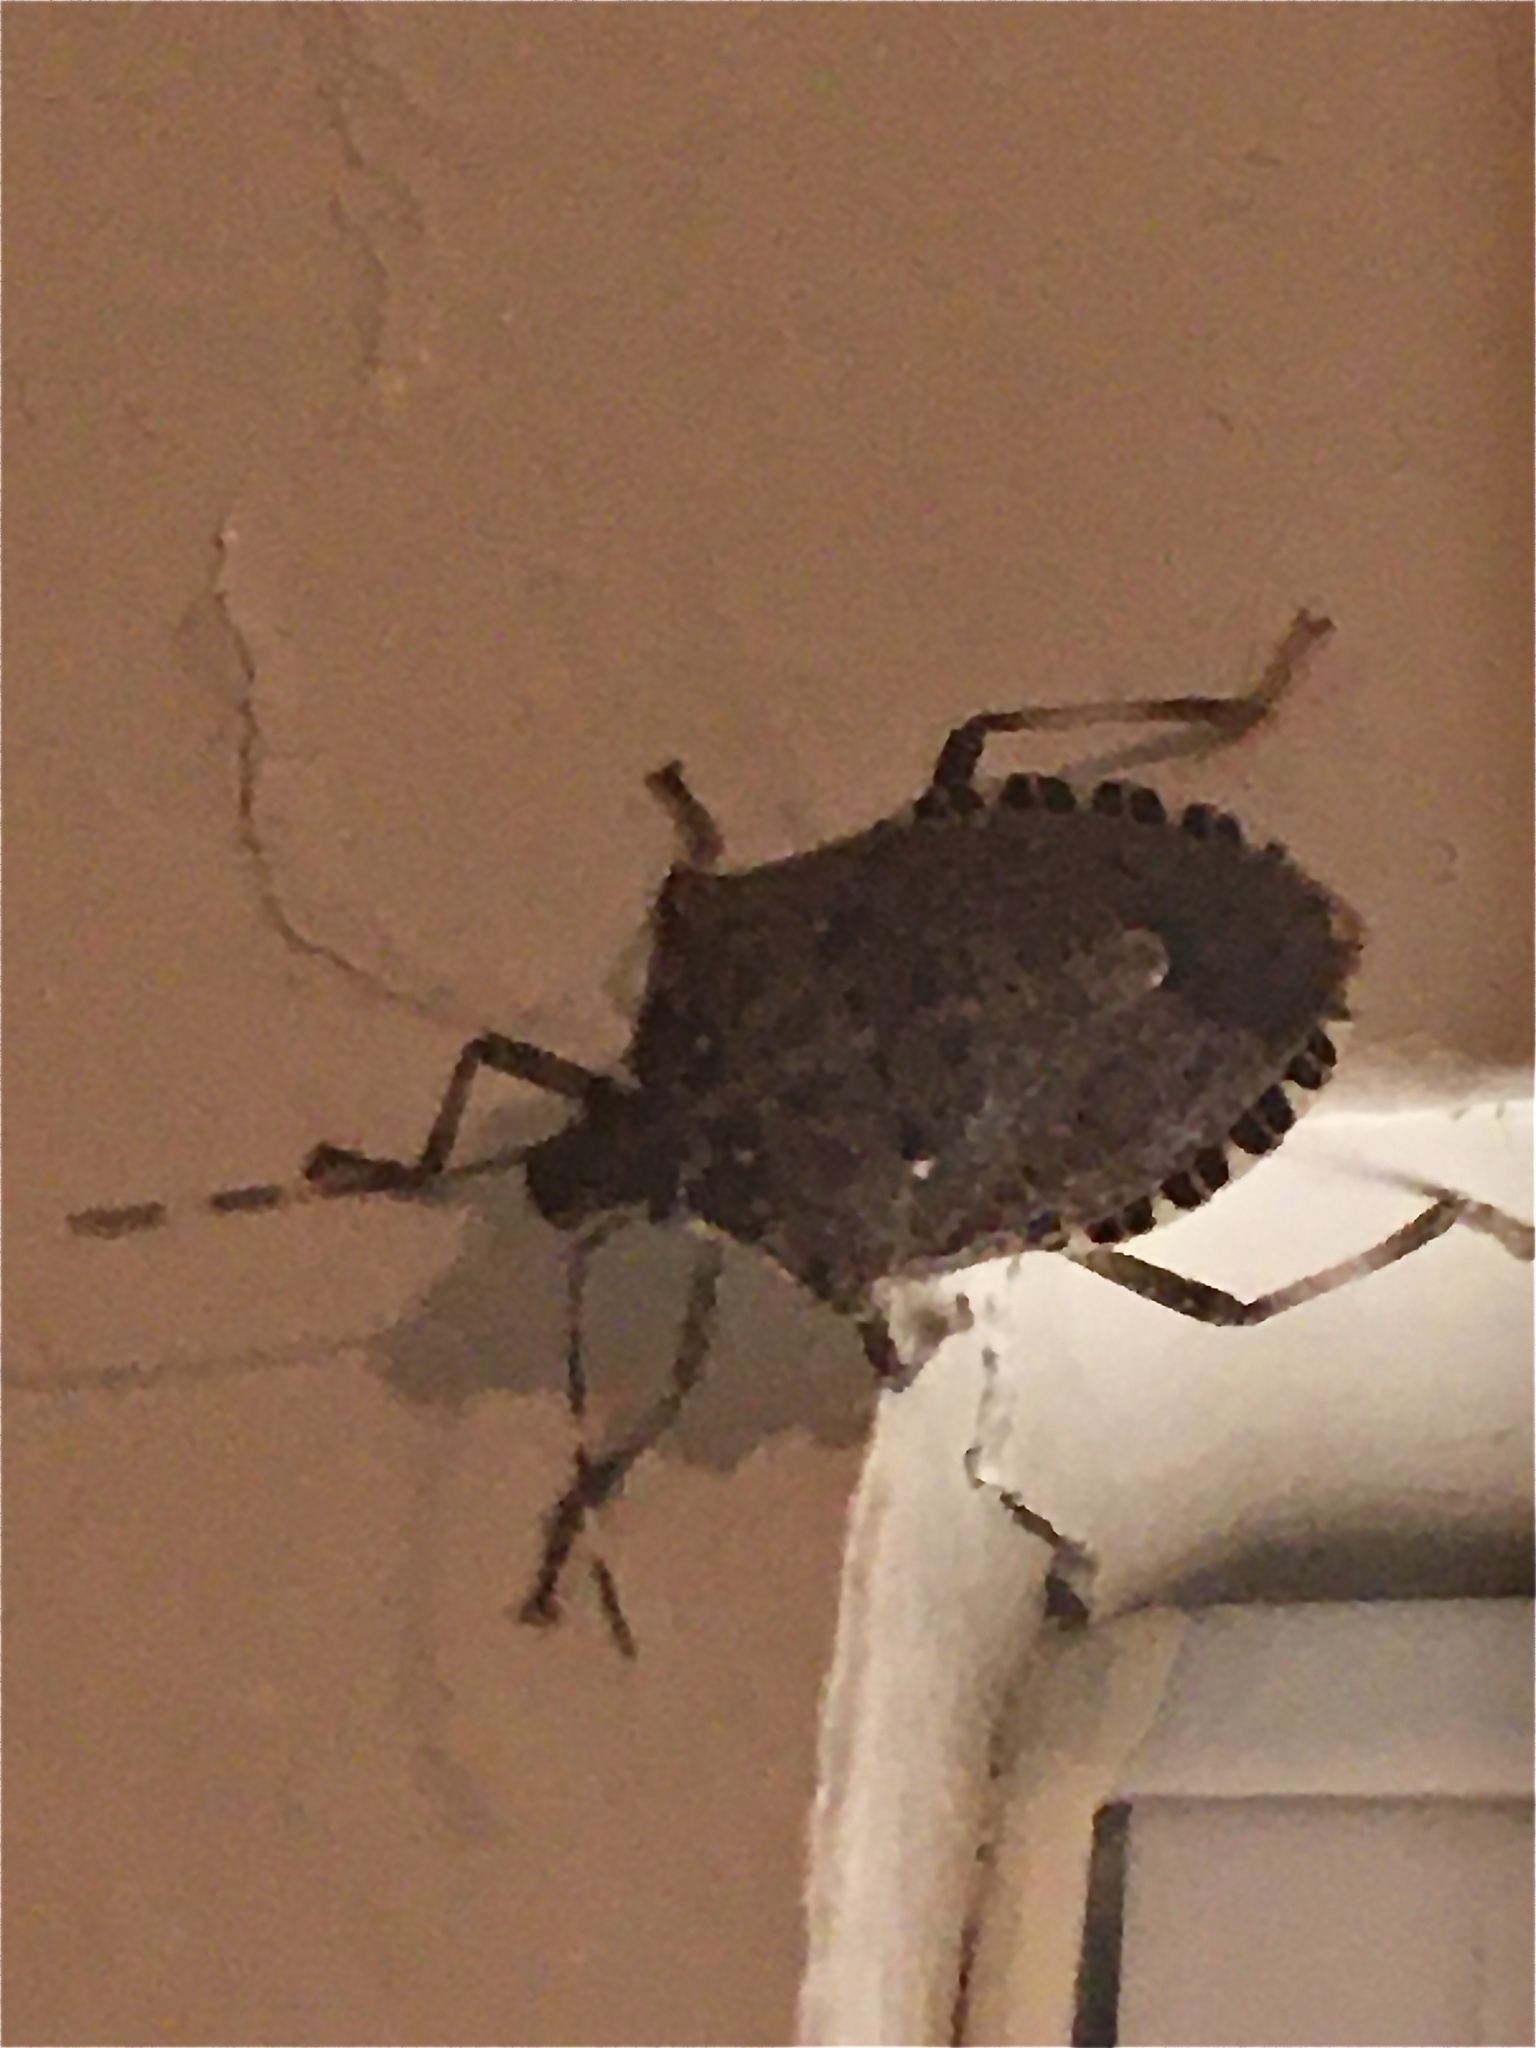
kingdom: Animalia
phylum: Arthropoda
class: Insecta
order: Hemiptera
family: Pentatomidae
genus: Halyomorpha
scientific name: Halyomorpha halys
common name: Brown marmorated stink bug
